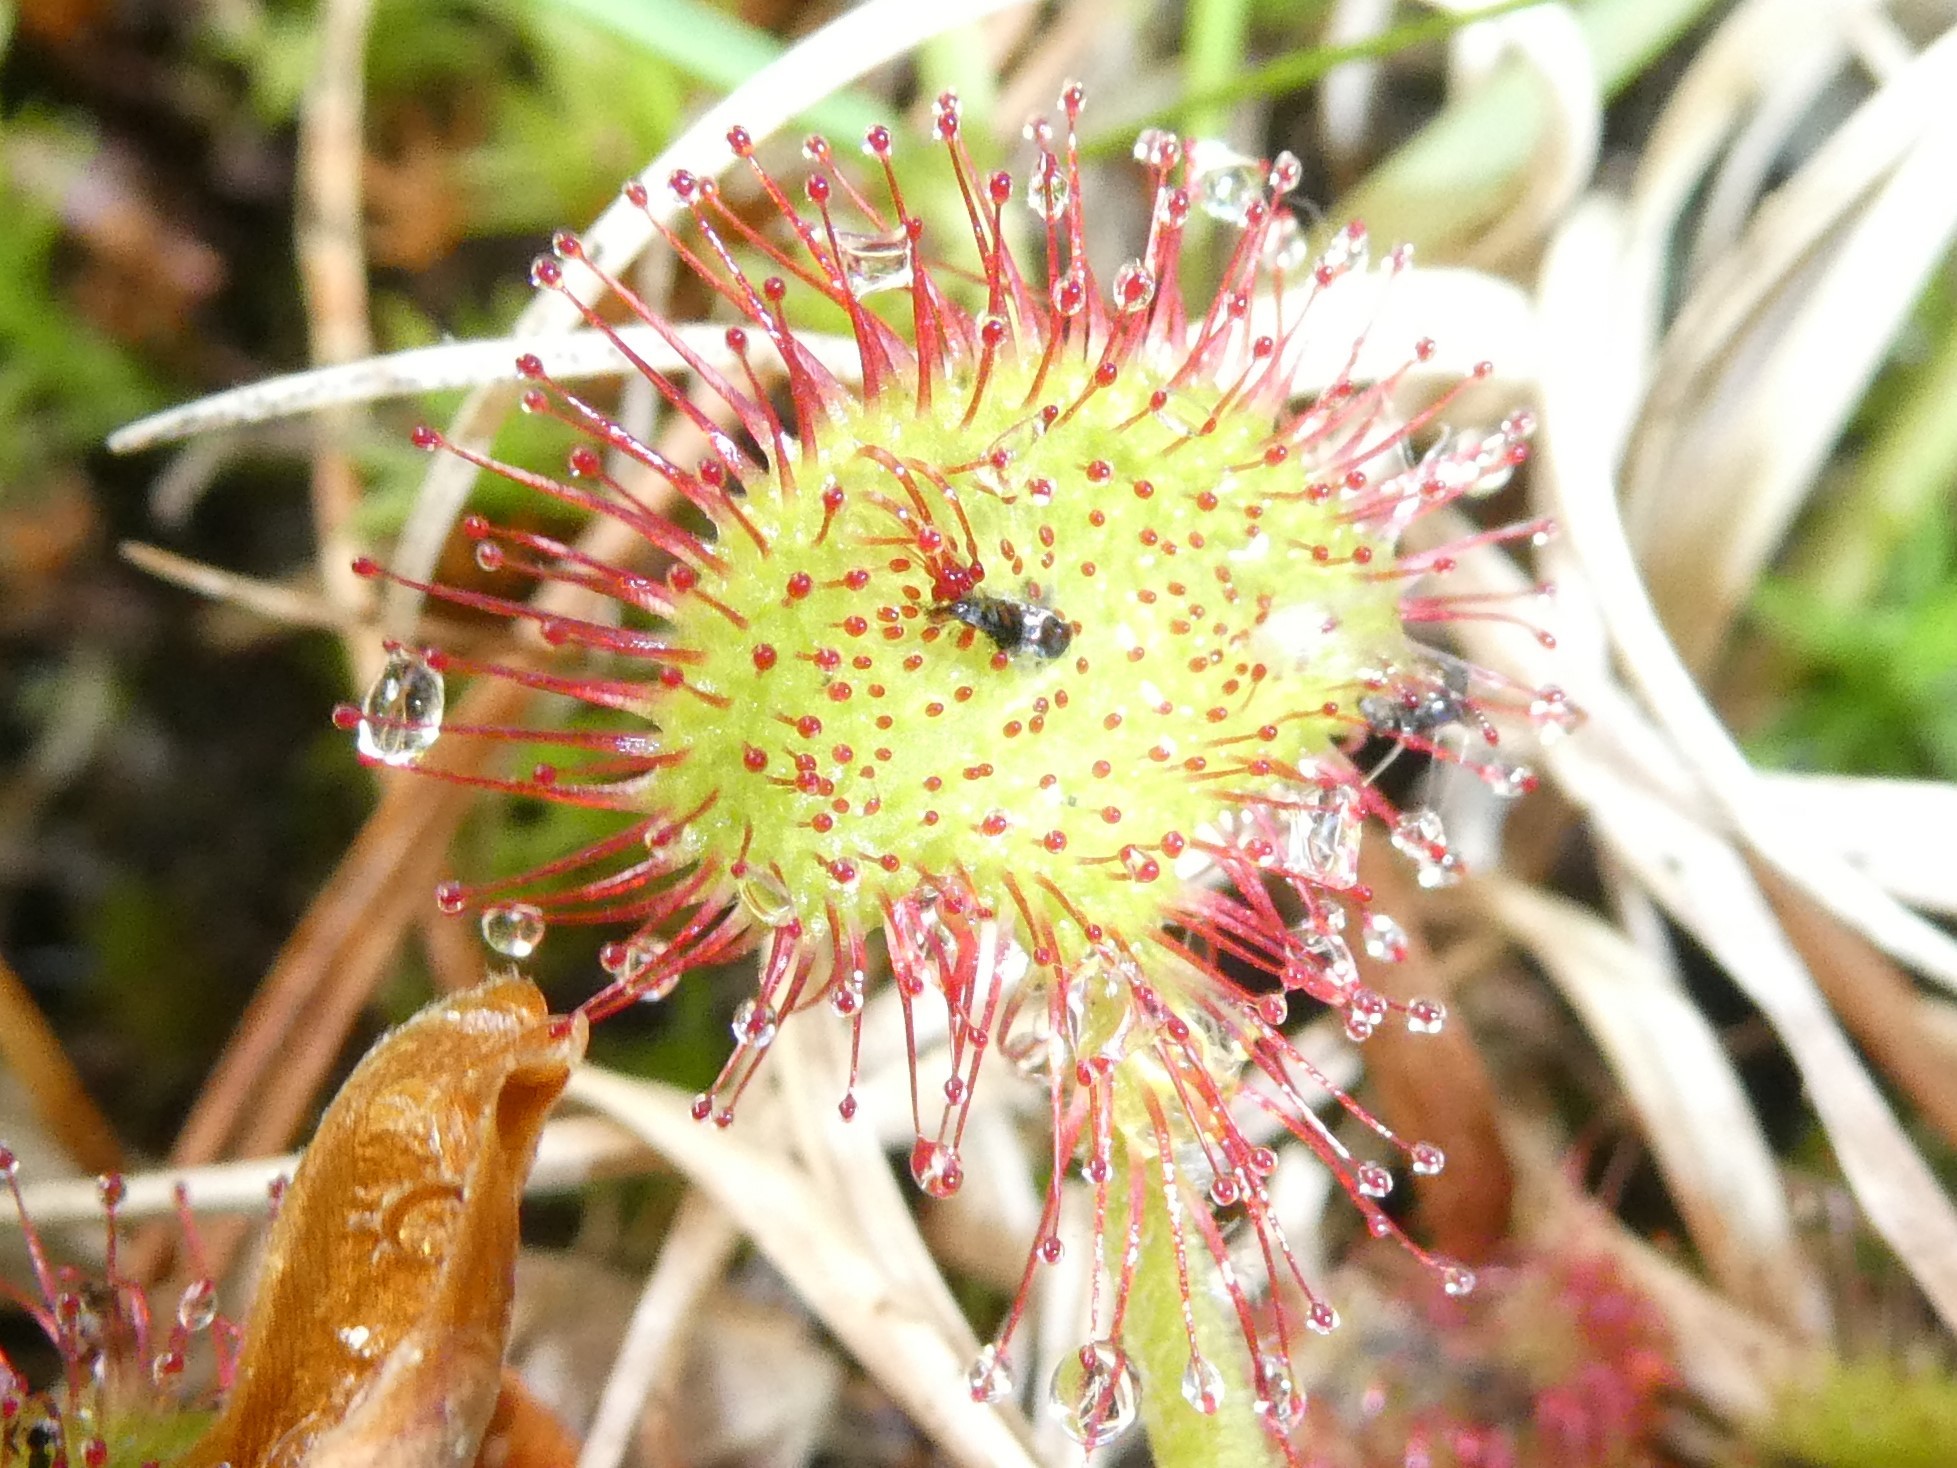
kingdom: Plantae
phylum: Tracheophyta
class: Magnoliopsida
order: Caryophyllales
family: Droseraceae
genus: Drosera
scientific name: Drosera rotundifolia
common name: Round-leaved sundew
